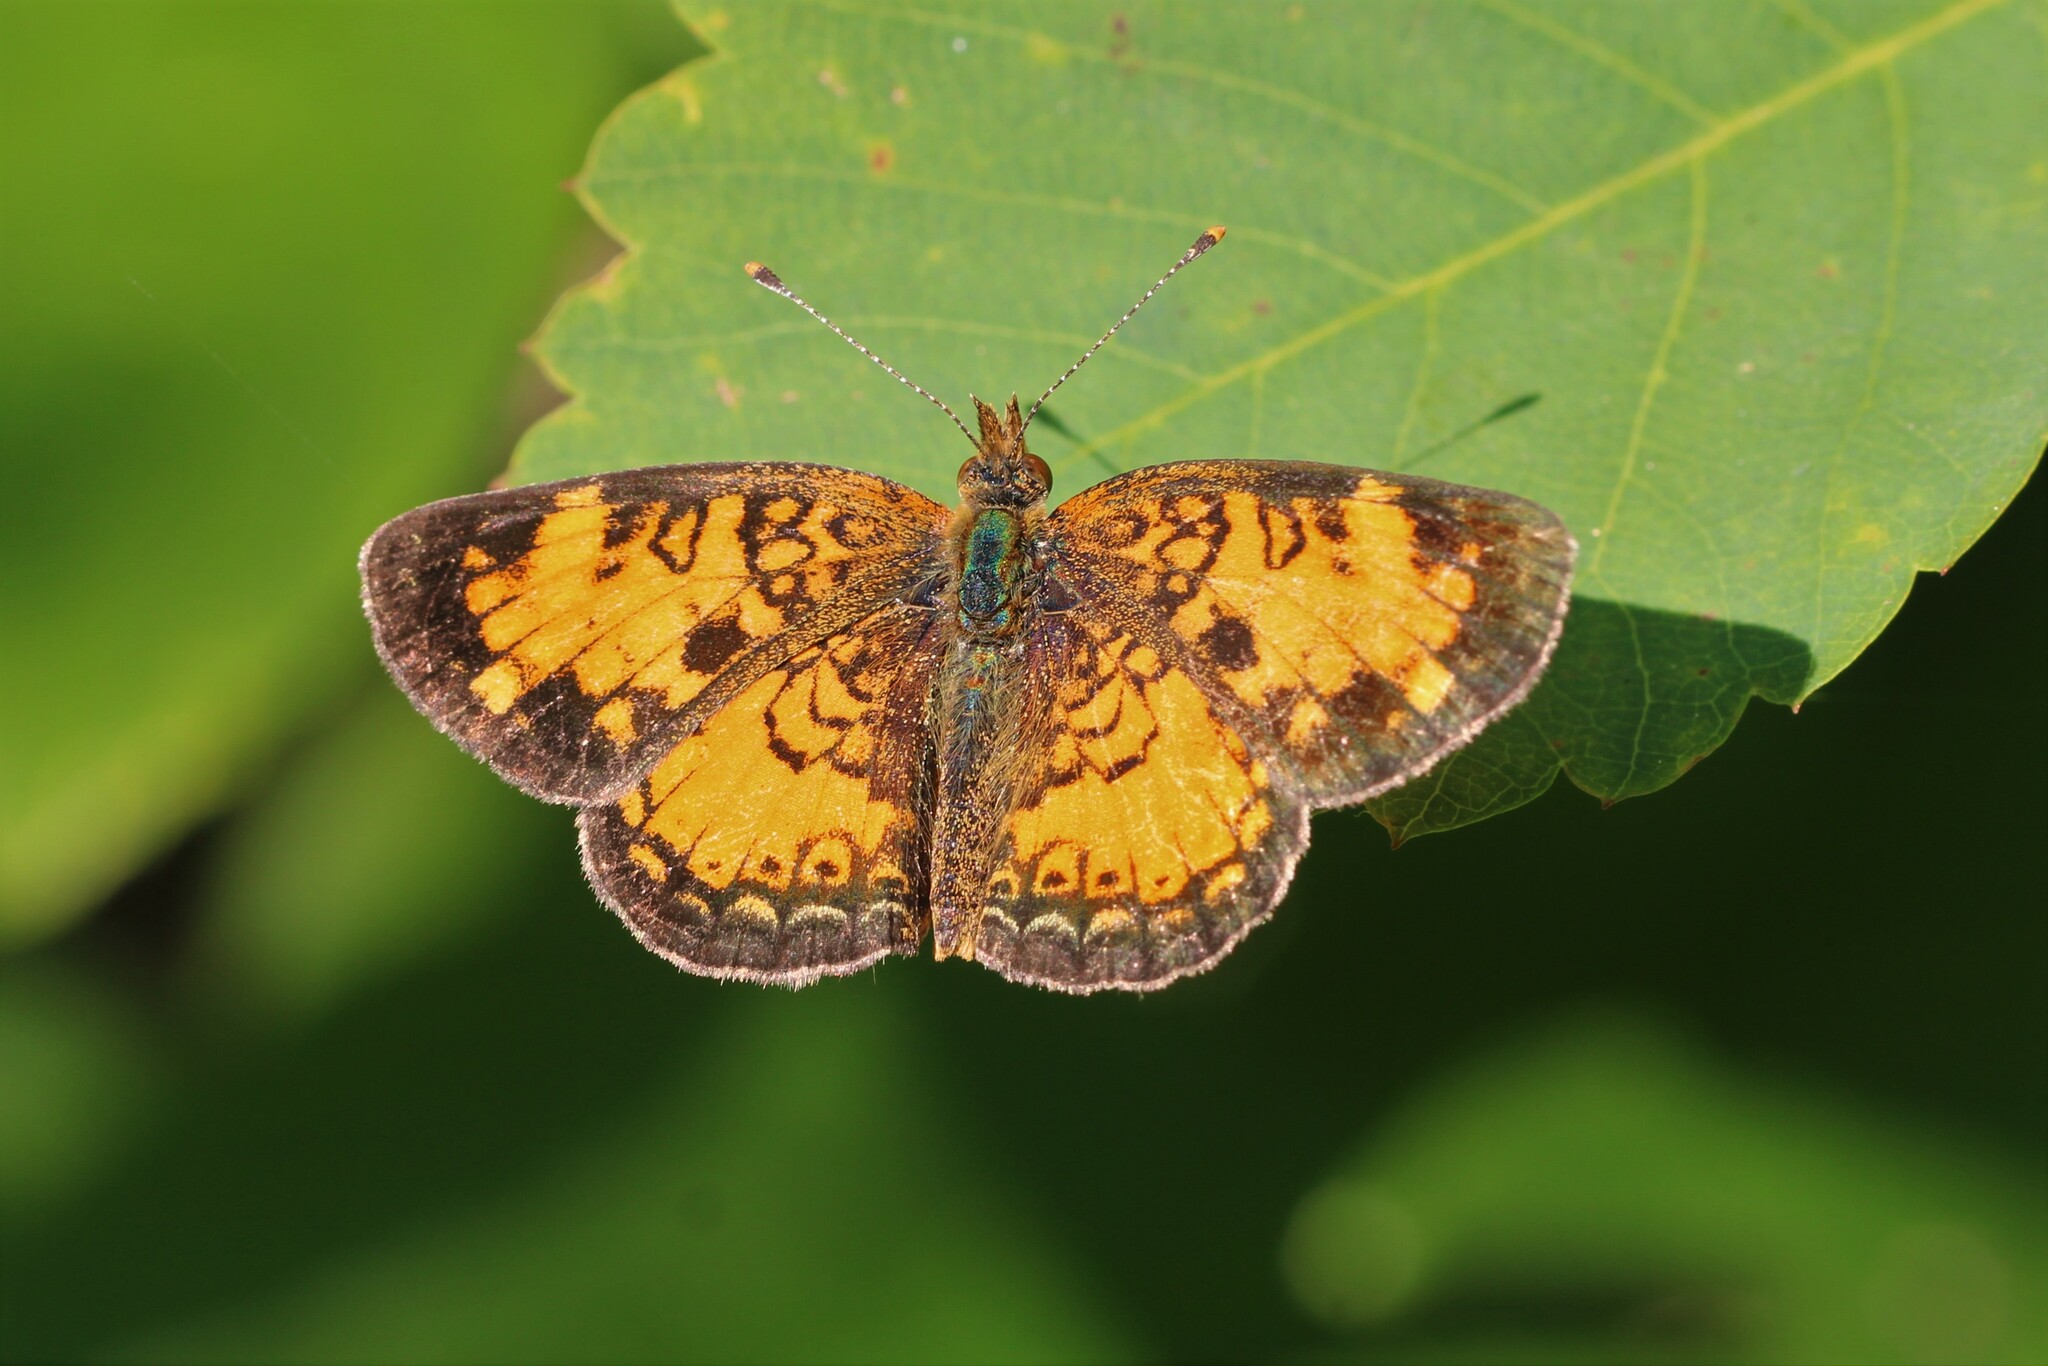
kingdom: Animalia
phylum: Arthropoda
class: Insecta
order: Lepidoptera
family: Nymphalidae
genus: Phyciodes
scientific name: Phyciodes tharos
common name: Pearl crescent
